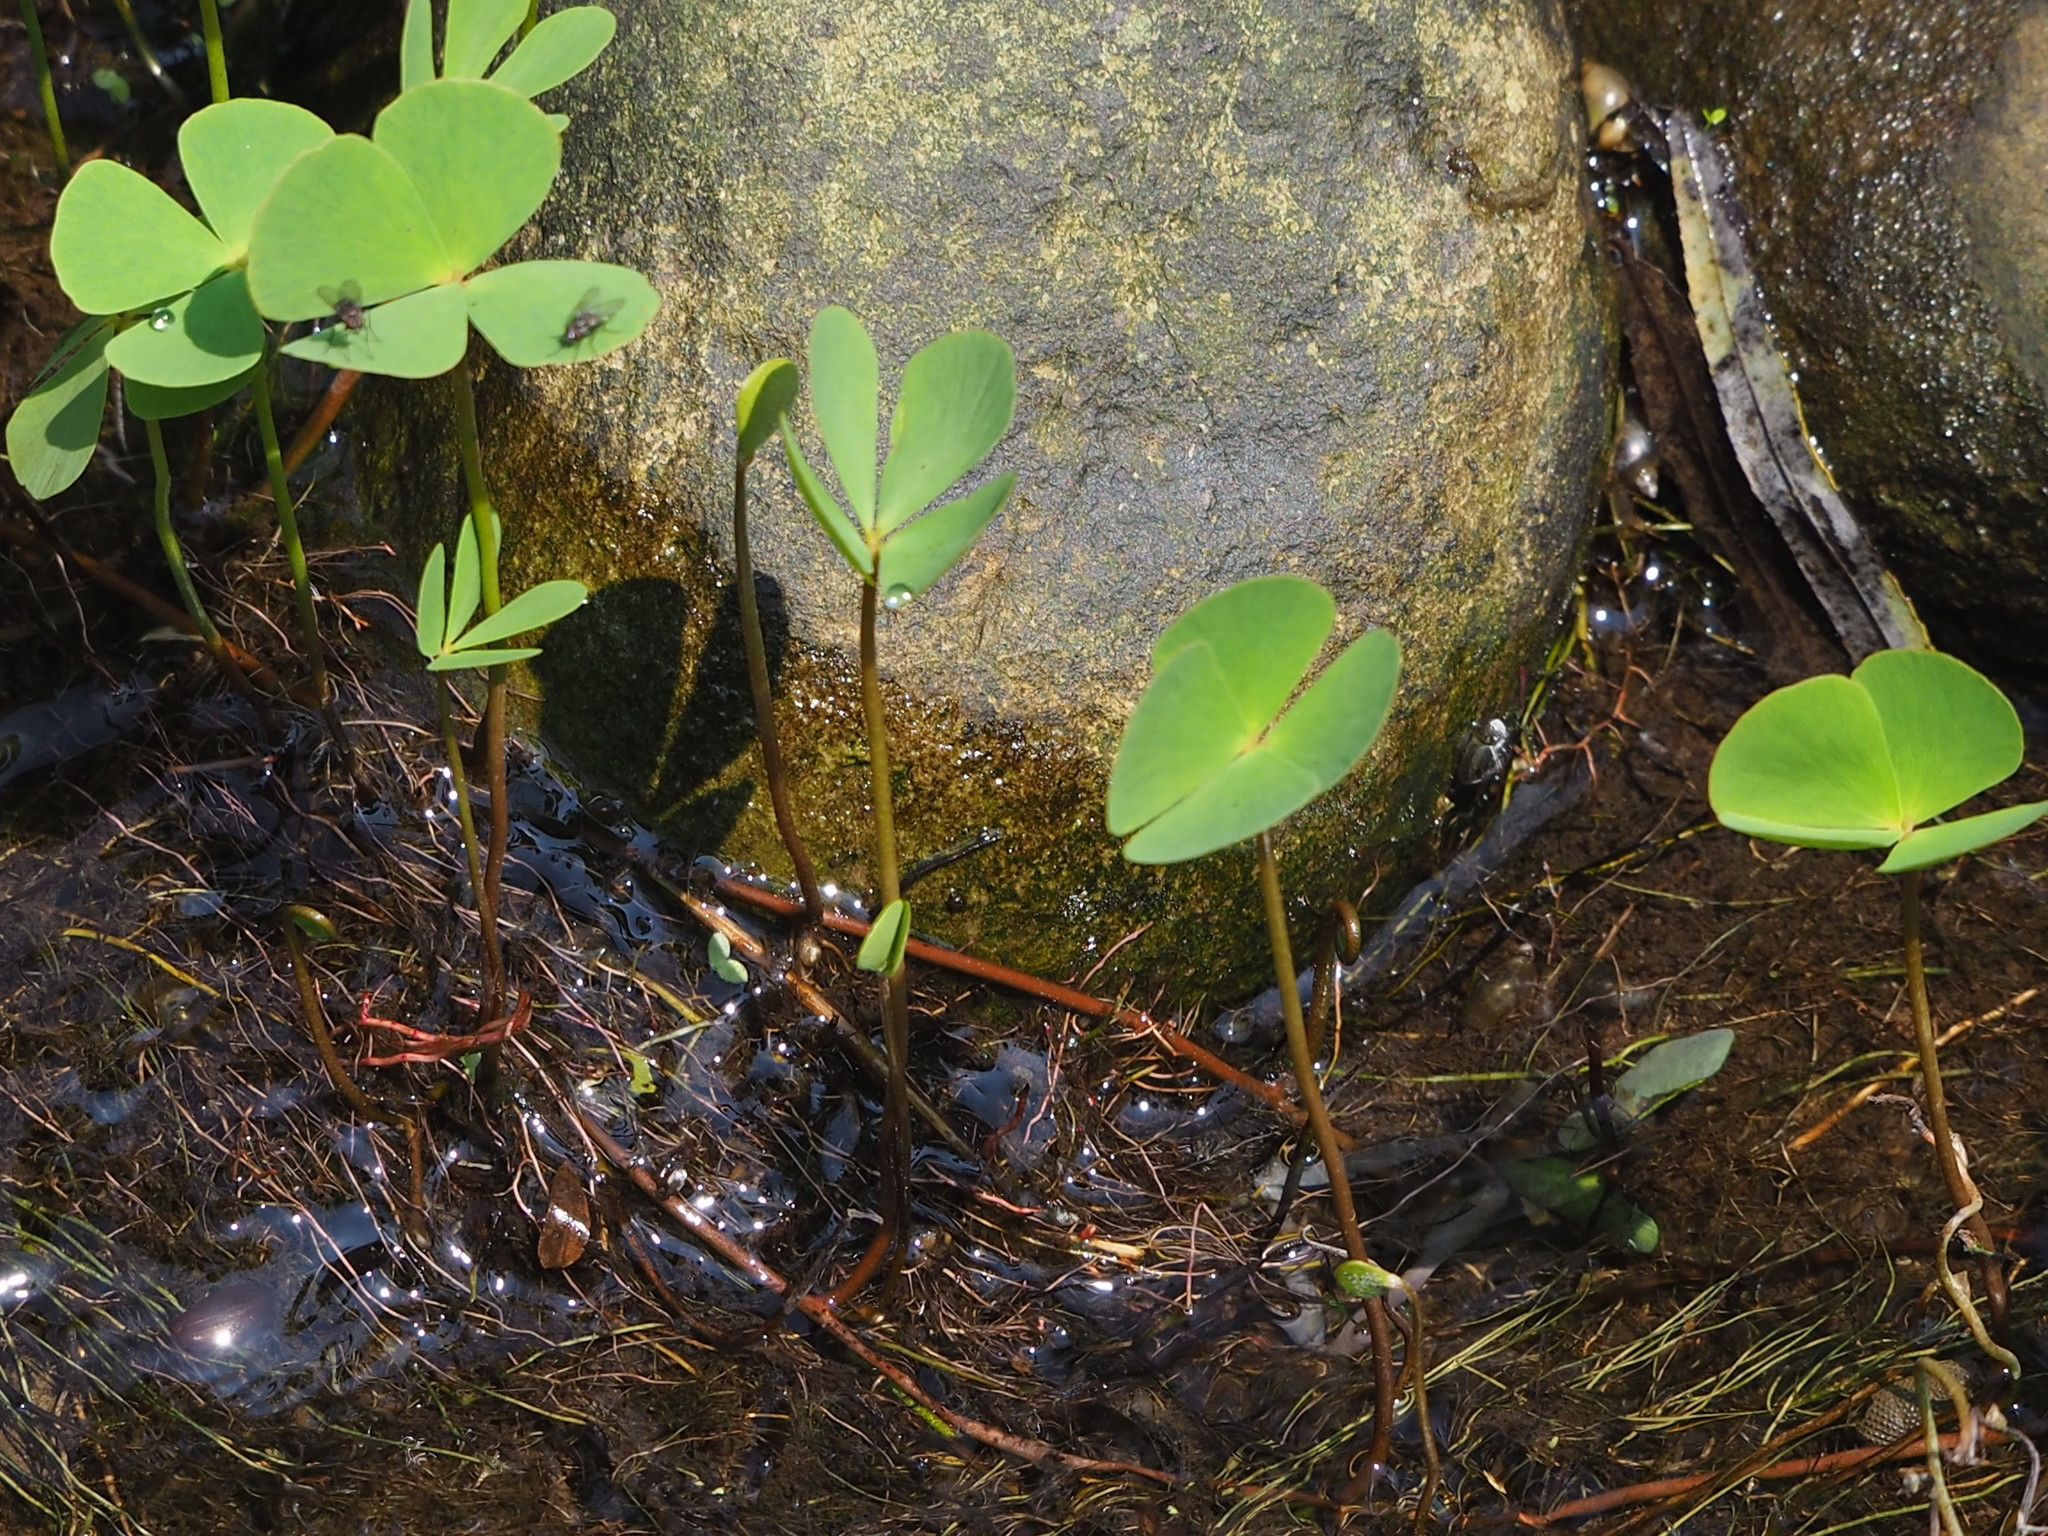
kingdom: Plantae
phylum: Tracheophyta
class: Polypodiopsida
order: Salviniales
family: Marsileaceae
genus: Marsilea
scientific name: Marsilea minuta
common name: Dwarf waterclover
